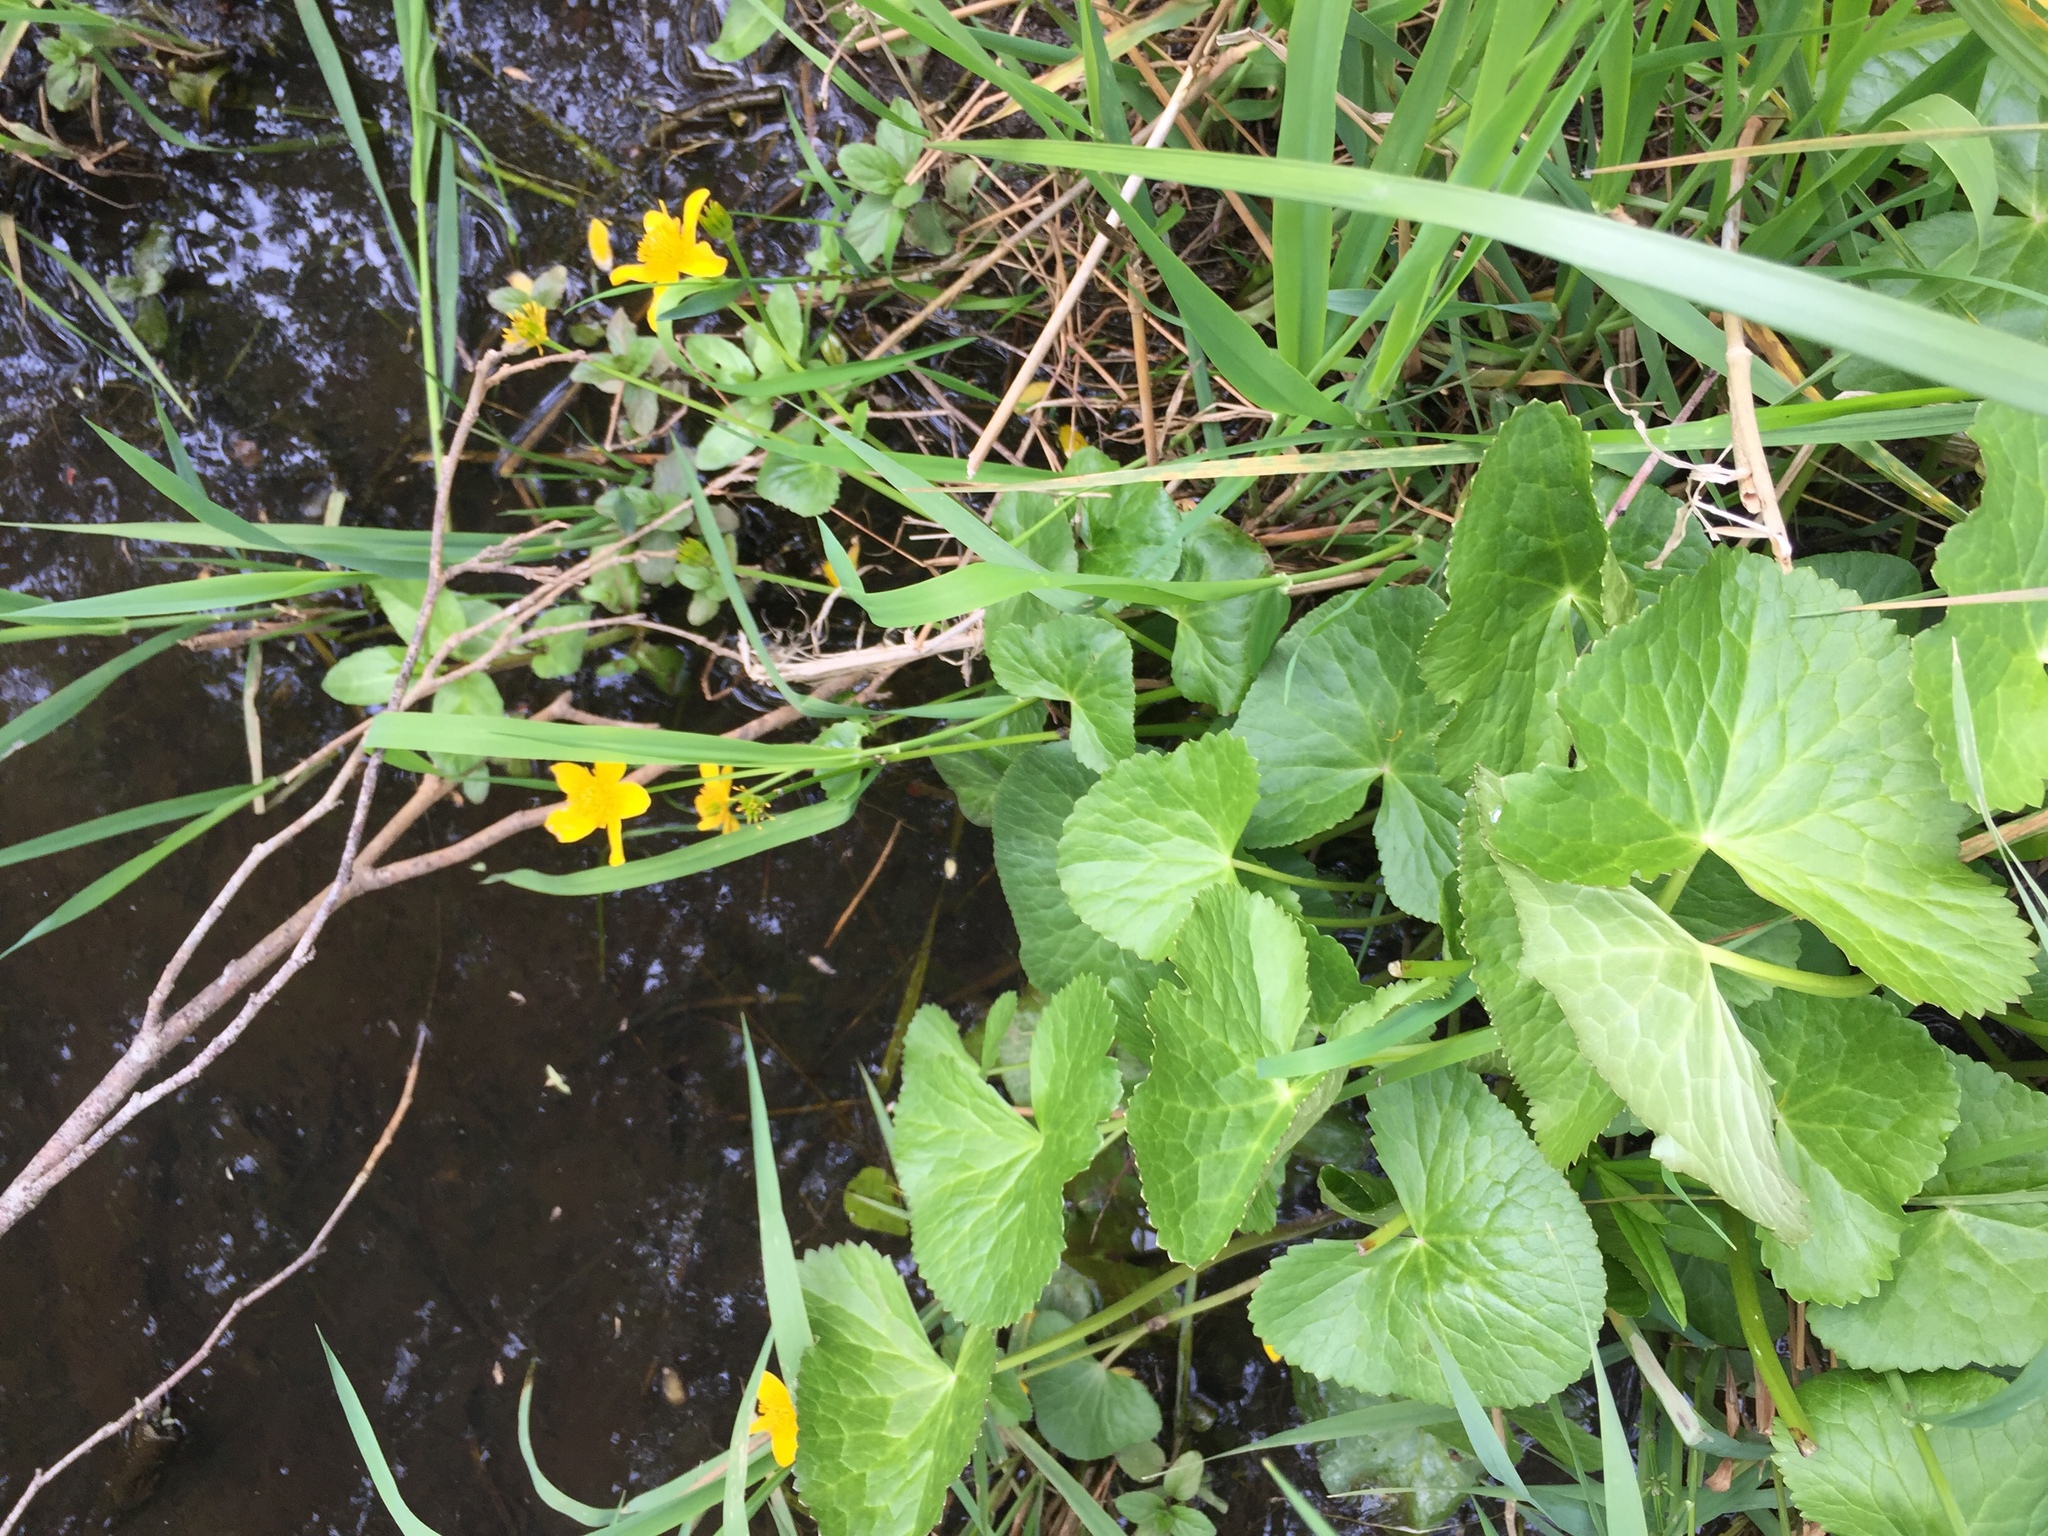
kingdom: Plantae
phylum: Tracheophyta
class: Magnoliopsida
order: Ranunculales
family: Ranunculaceae
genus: Caltha
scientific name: Caltha palustris
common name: Marsh marigold
